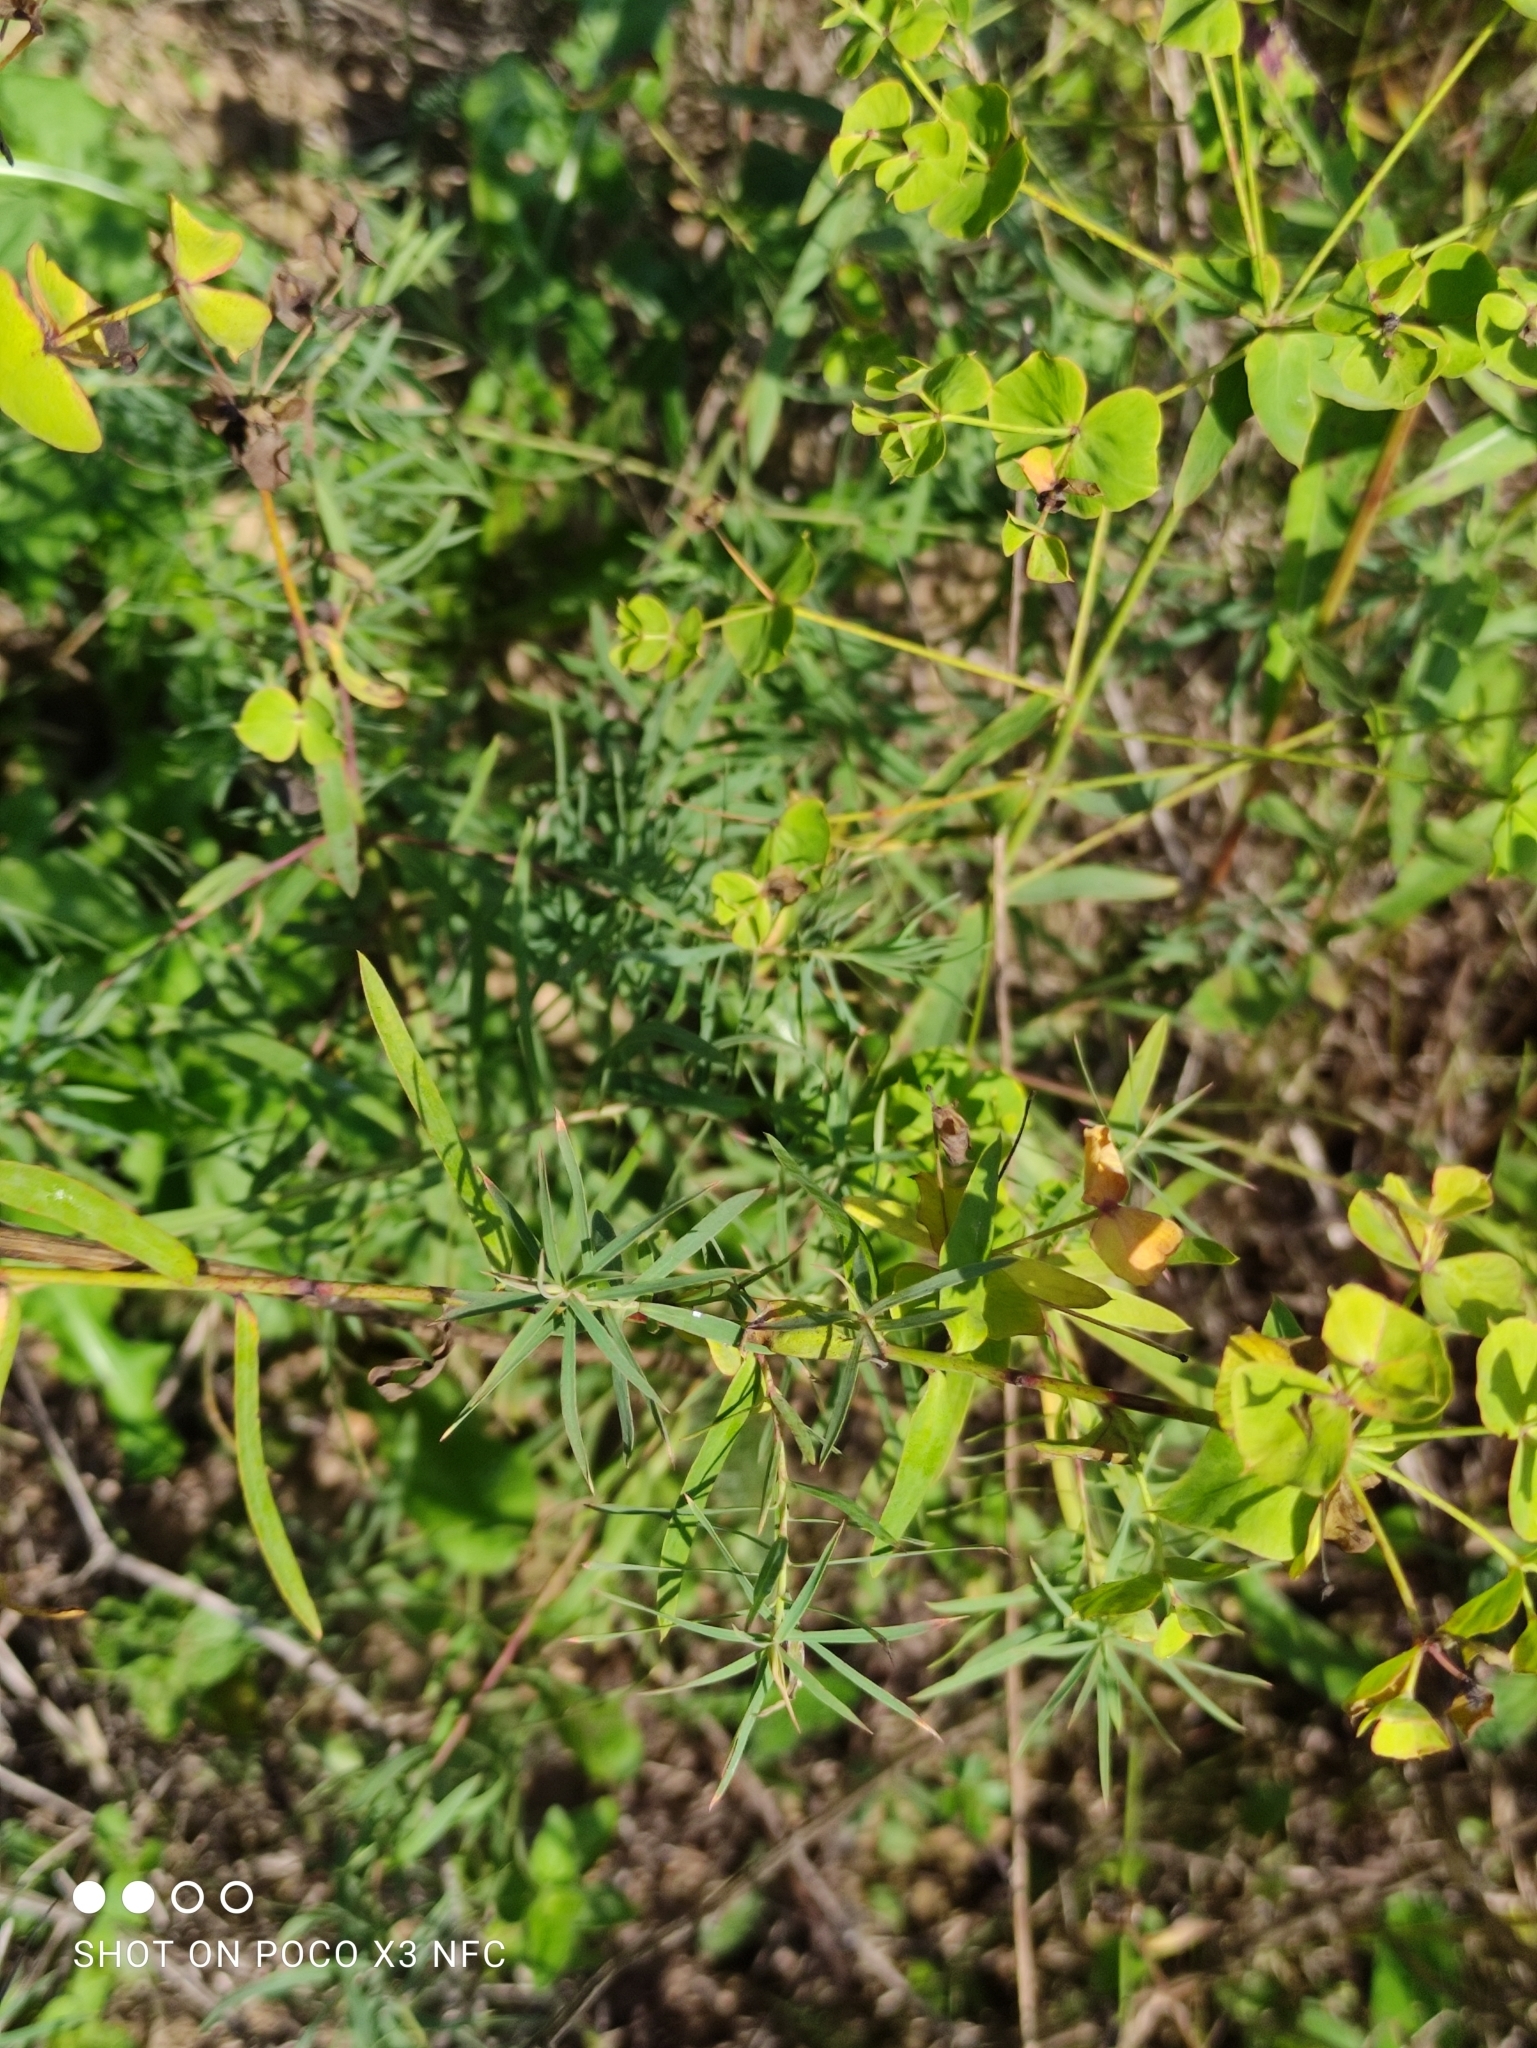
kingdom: Plantae
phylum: Tracheophyta
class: Magnoliopsida
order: Malpighiales
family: Euphorbiaceae
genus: Euphorbia
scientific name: Euphorbia virgata
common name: Leafy spurge
